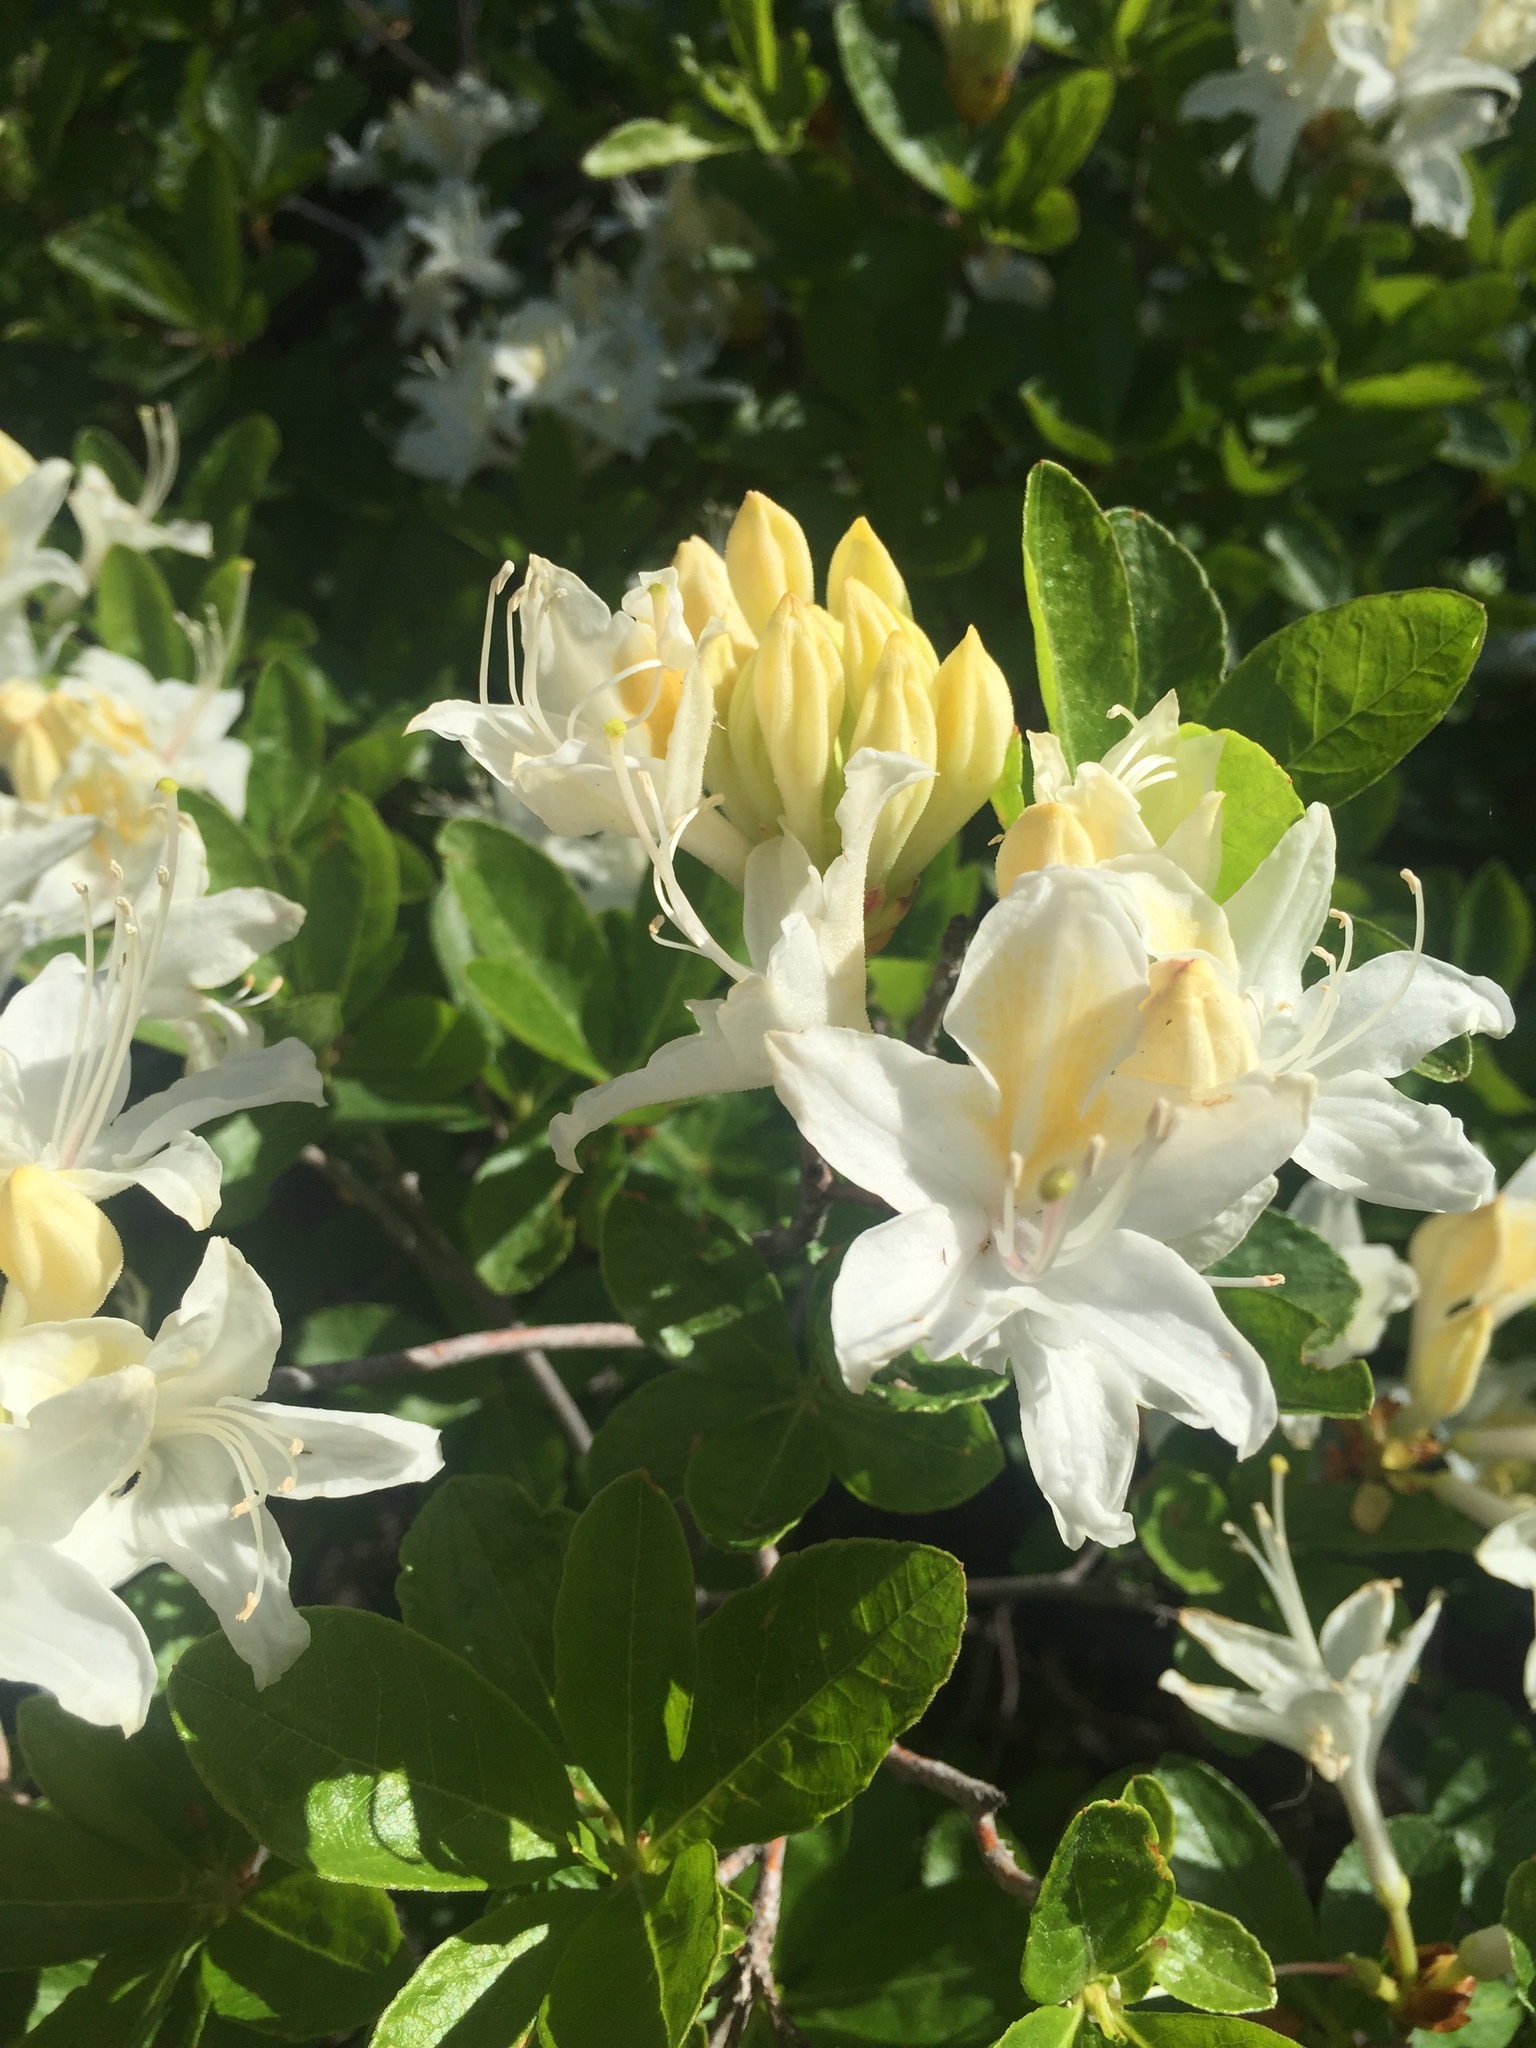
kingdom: Plantae
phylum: Tracheophyta
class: Magnoliopsida
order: Ericales
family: Ericaceae
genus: Rhododendron
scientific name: Rhododendron occidentale
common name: Western azalea
